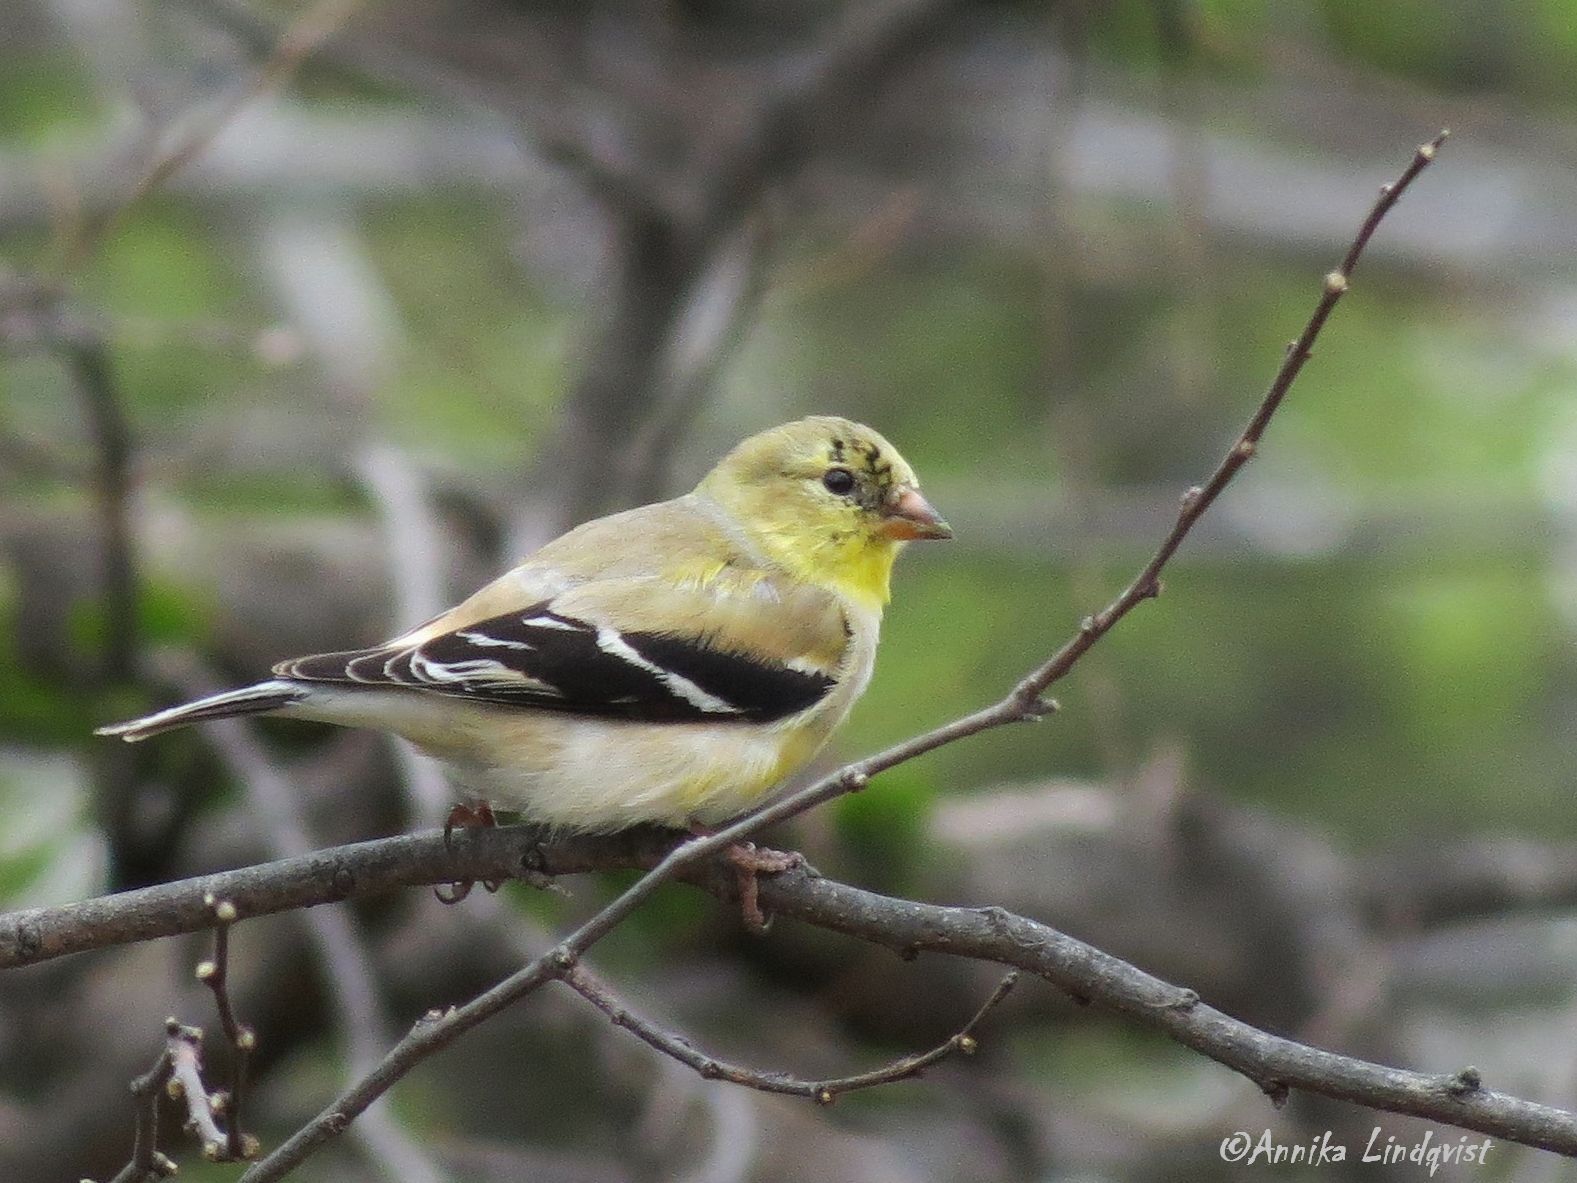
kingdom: Animalia
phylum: Chordata
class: Aves
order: Passeriformes
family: Fringillidae
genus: Spinus
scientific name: Spinus tristis
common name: American goldfinch
